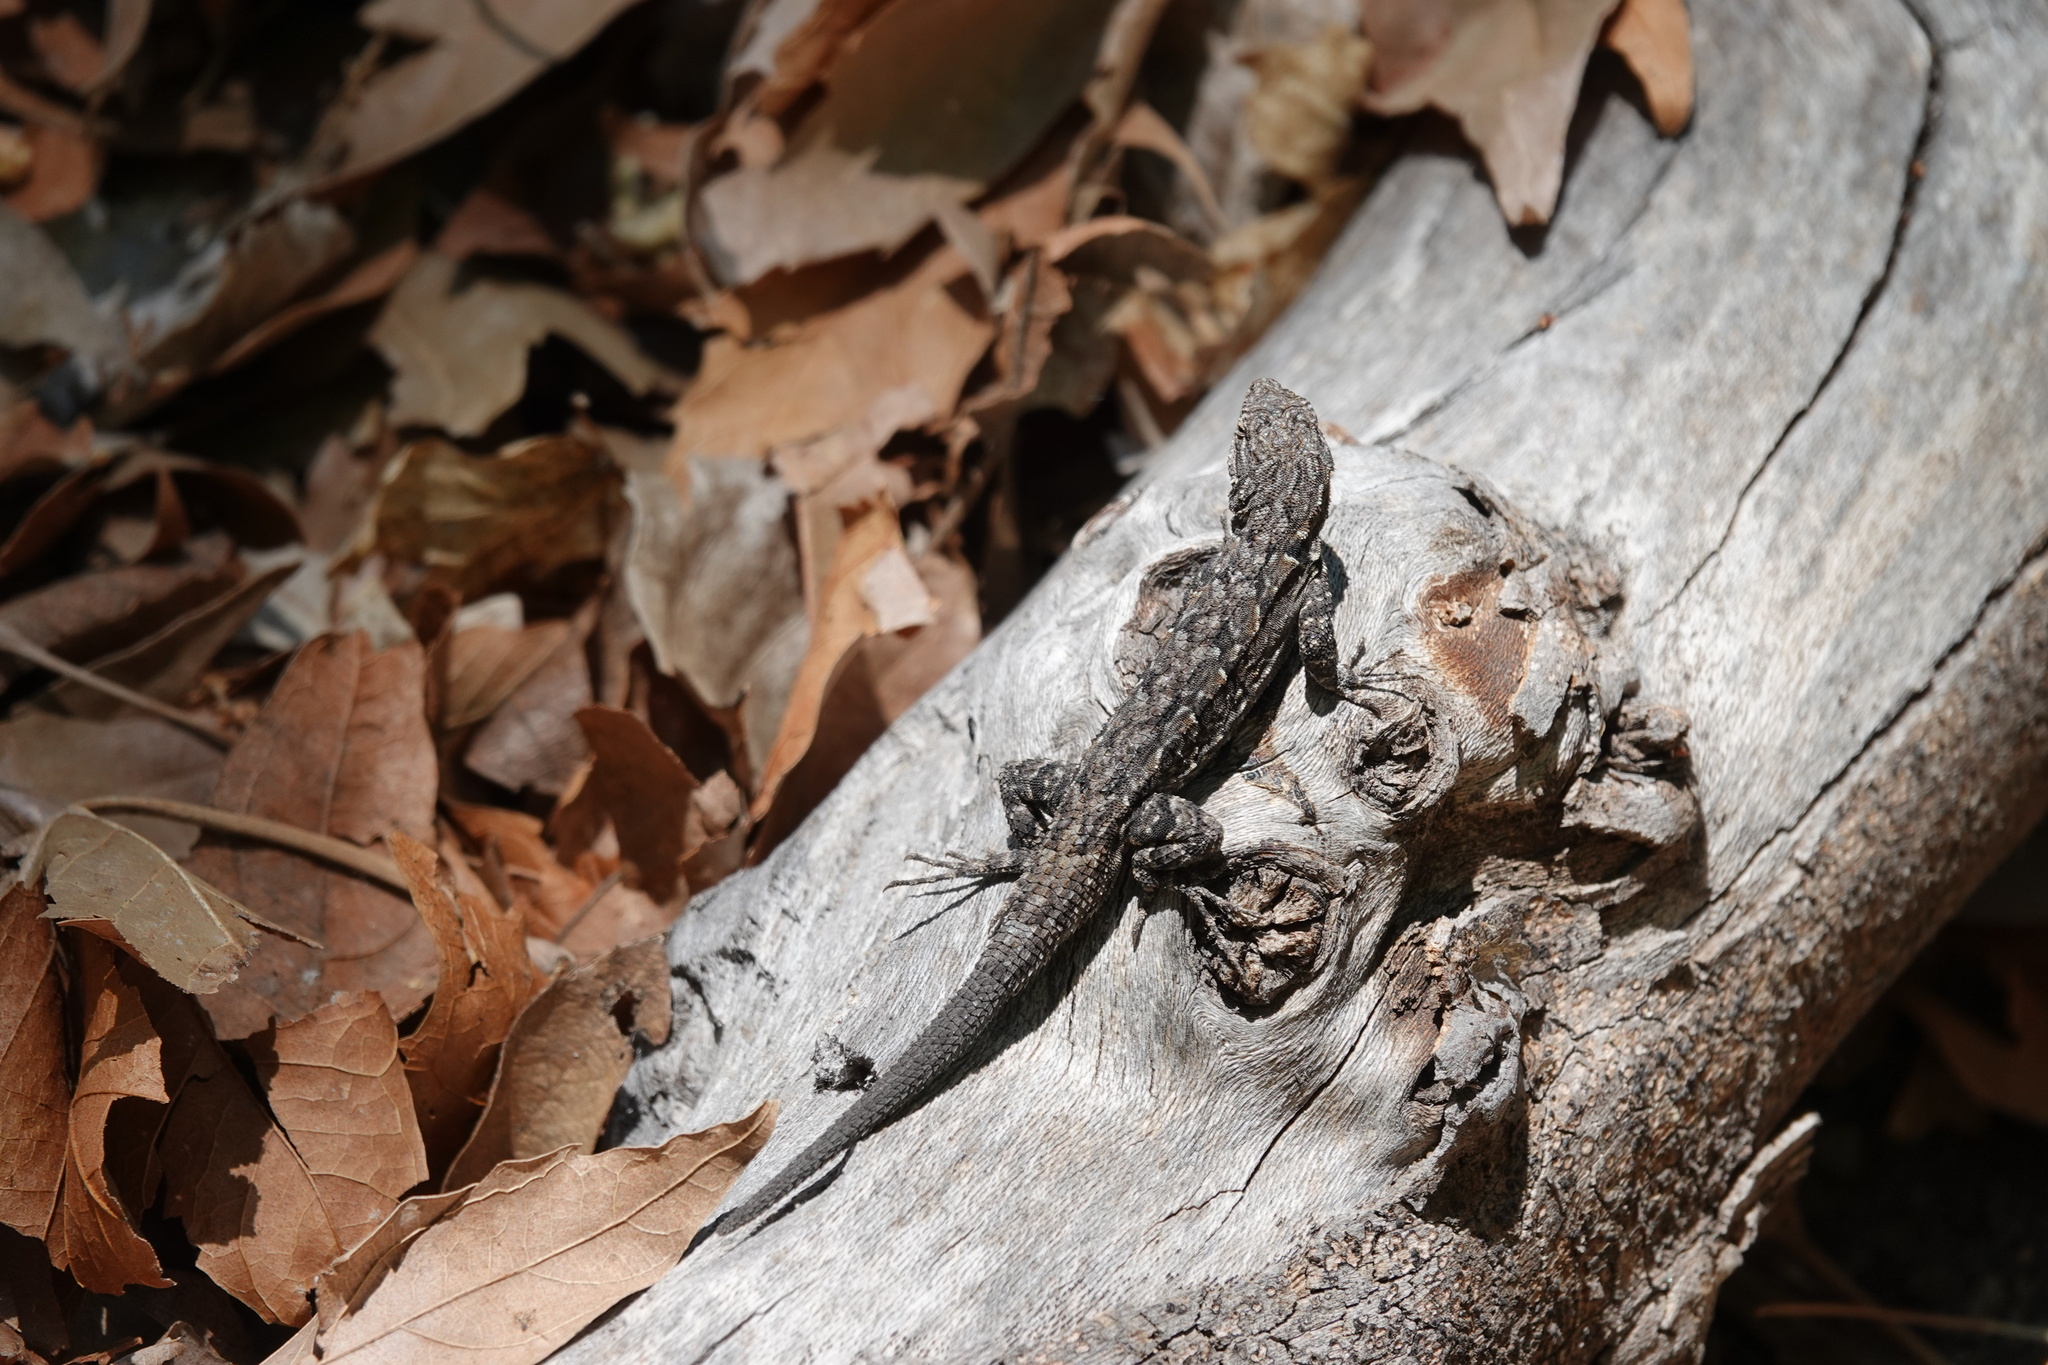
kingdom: Animalia
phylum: Chordata
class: Squamata
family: Phrynosomatidae
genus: Urosaurus
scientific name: Urosaurus ornatus
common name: Ornate tree lizard
